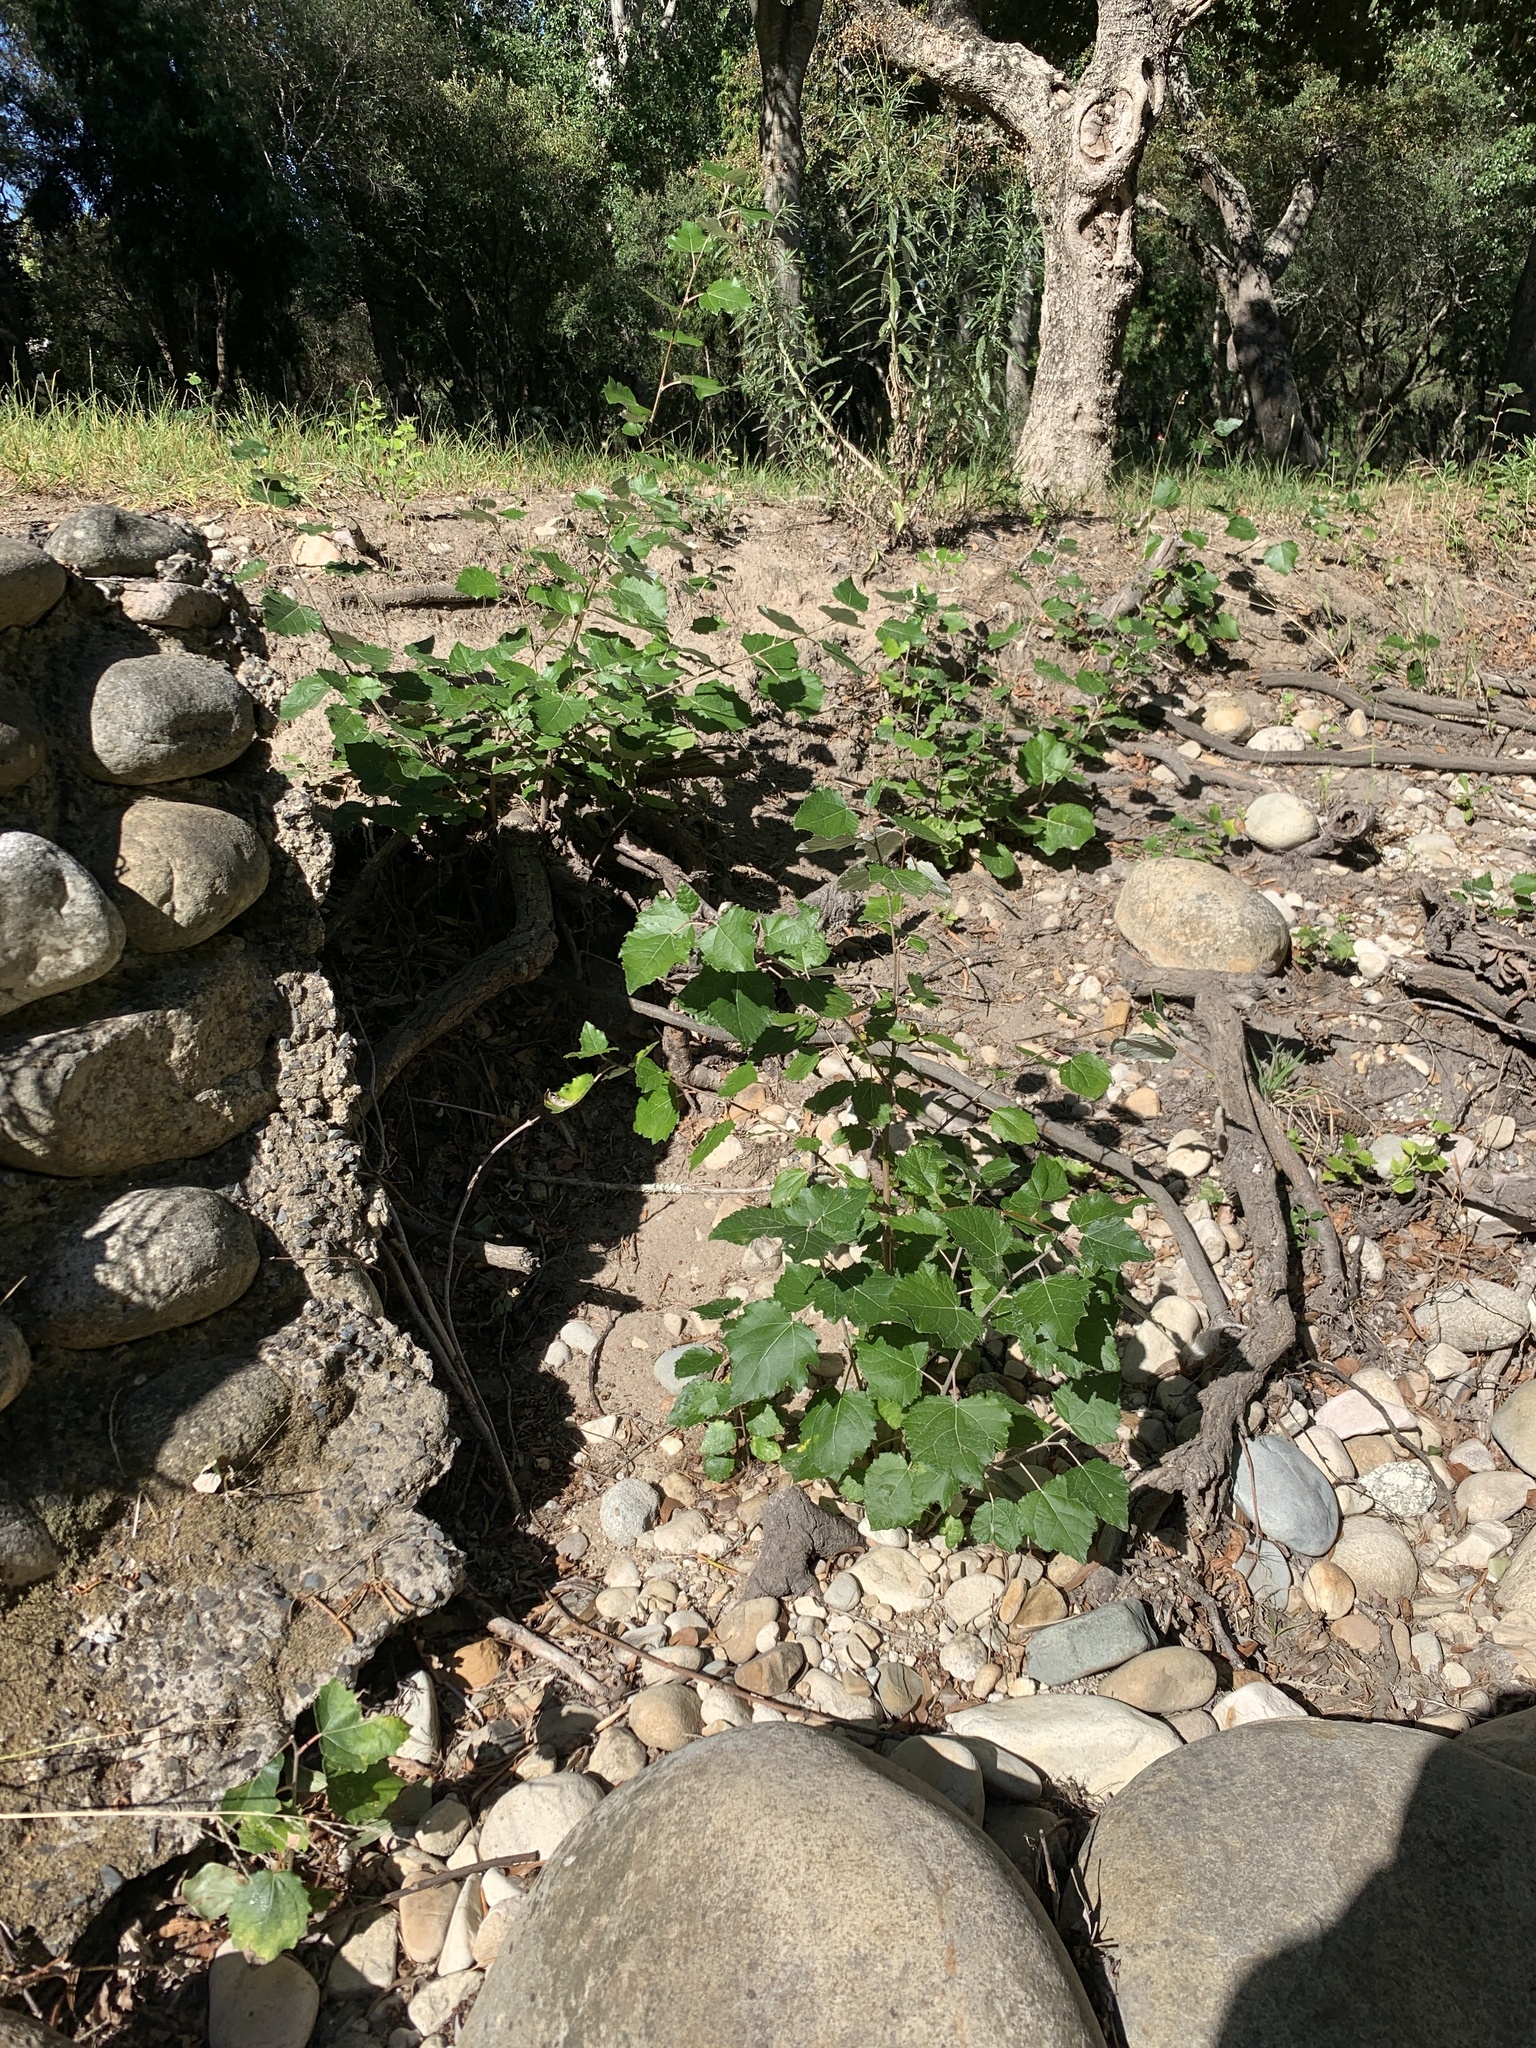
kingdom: Plantae
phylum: Tracheophyta
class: Magnoliopsida
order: Malpighiales
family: Salicaceae
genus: Populus
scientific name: Populus canescens
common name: Gray poplar
